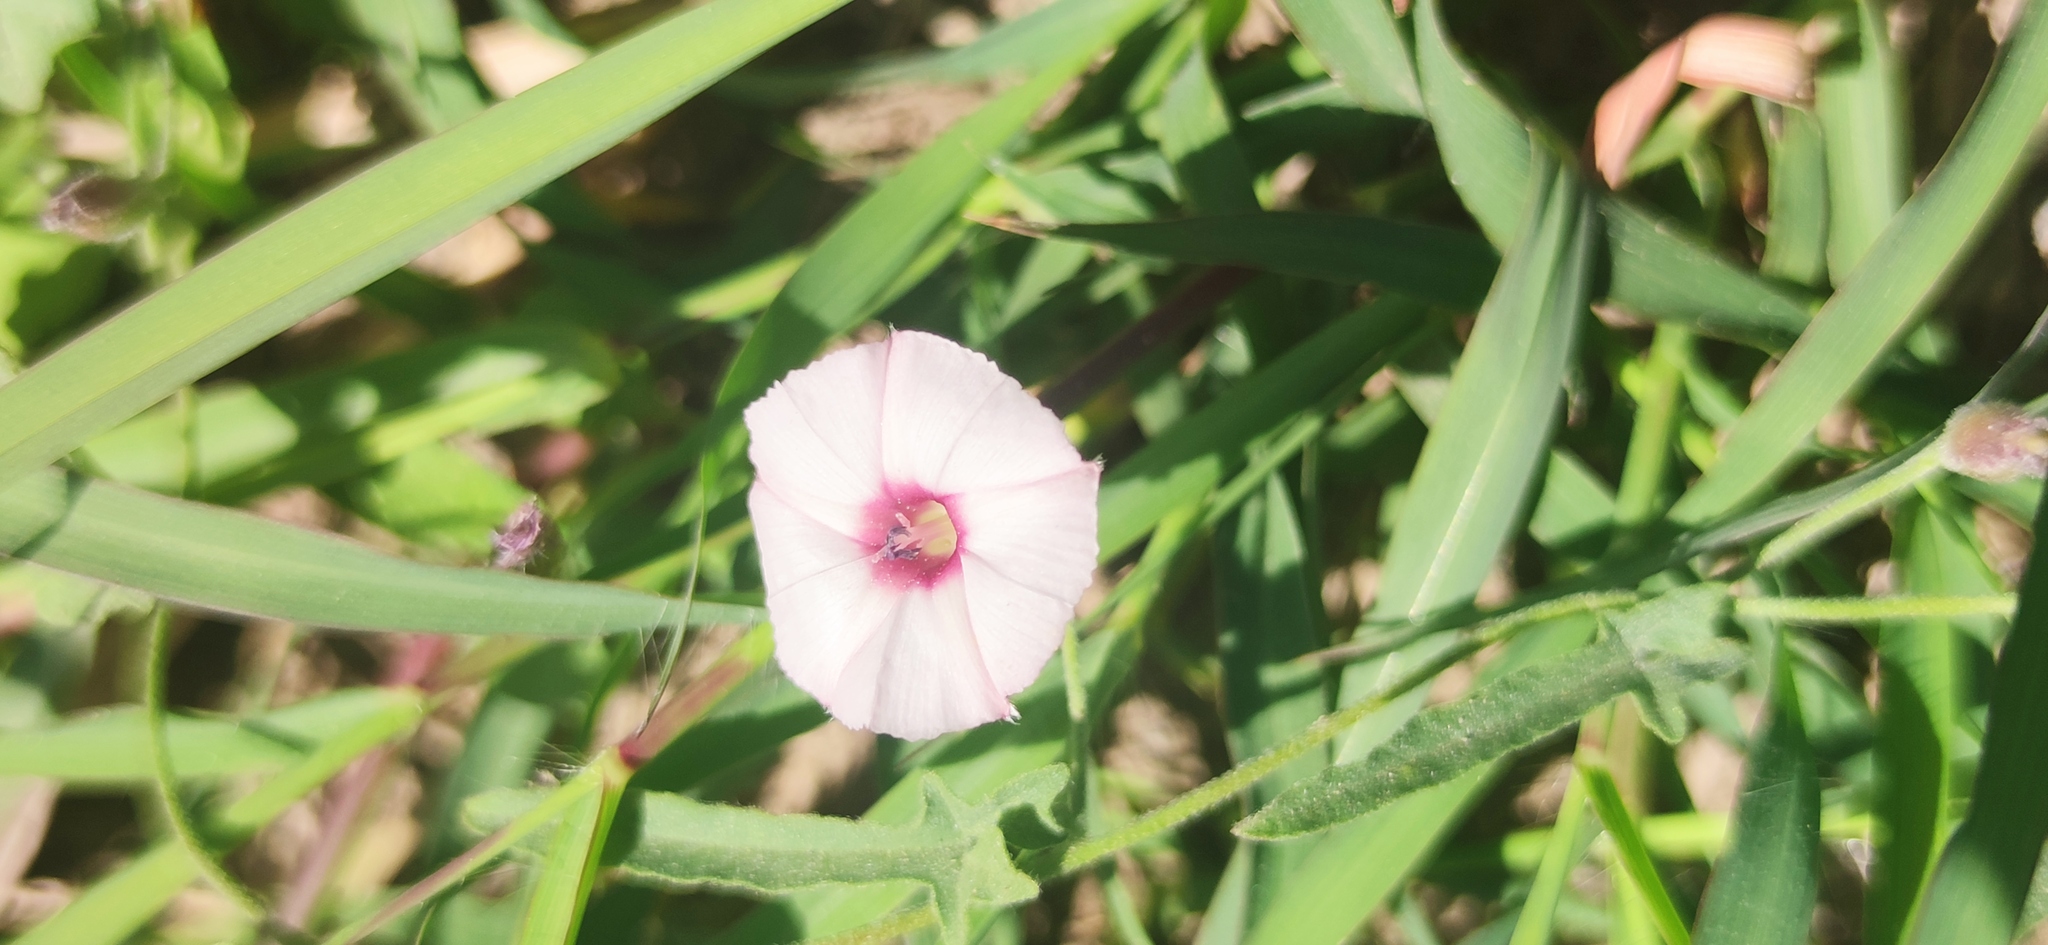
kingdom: Plantae
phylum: Tracheophyta
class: Magnoliopsida
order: Solanales
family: Convolvulaceae
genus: Convolvulus
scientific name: Convolvulus equitans
